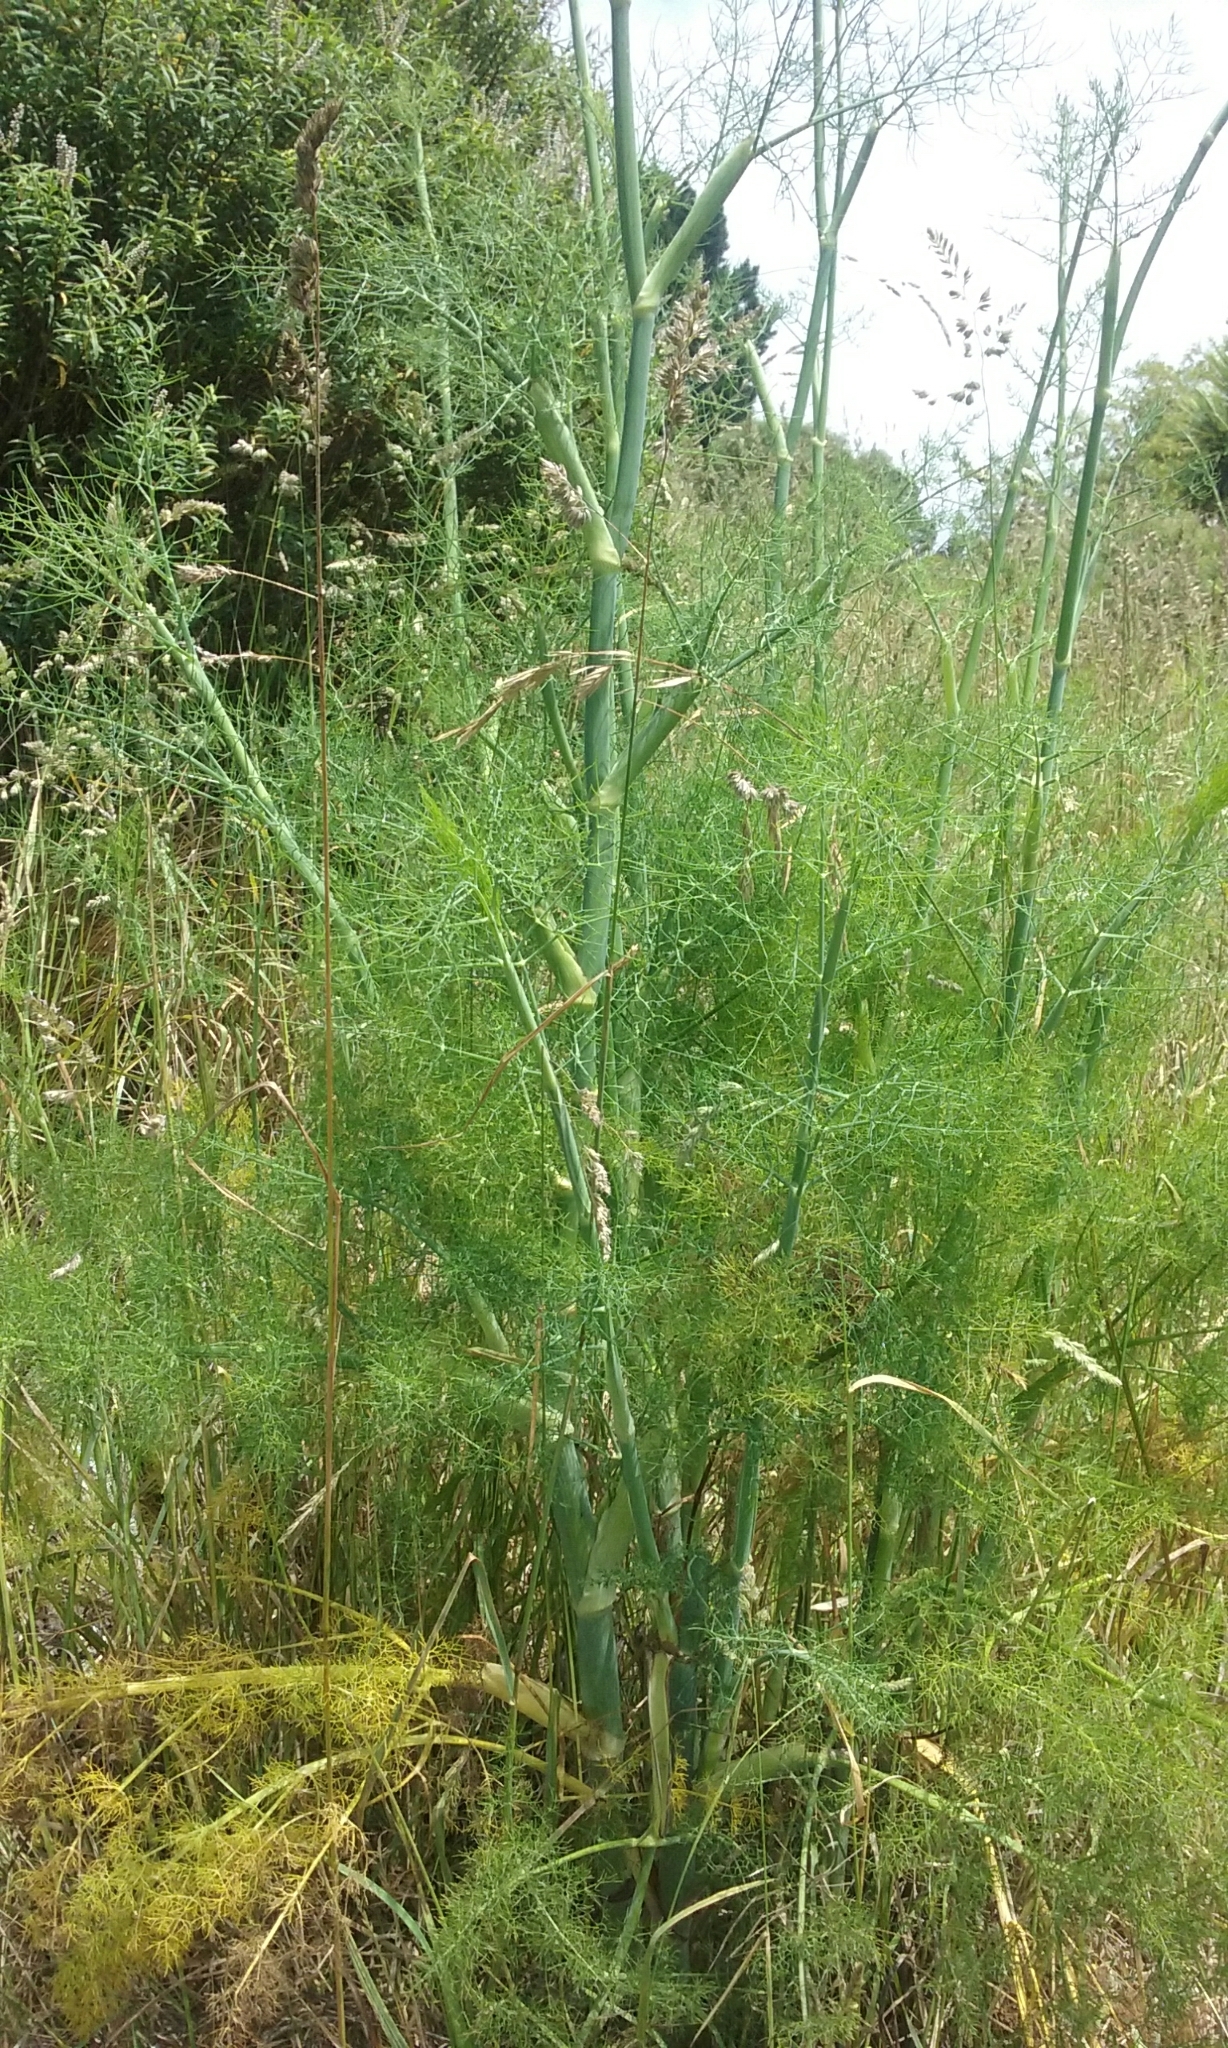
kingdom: Plantae
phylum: Tracheophyta
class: Magnoliopsida
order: Apiales
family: Apiaceae
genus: Foeniculum
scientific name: Foeniculum vulgare
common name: Fennel
